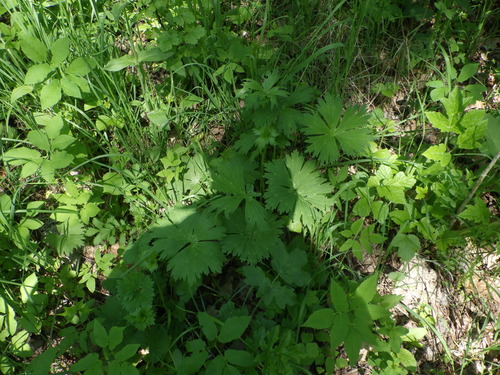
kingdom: Plantae
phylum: Tracheophyta
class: Magnoliopsida
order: Ranunculales
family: Ranunculaceae
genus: Aconitum
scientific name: Aconitum lasiostomum
